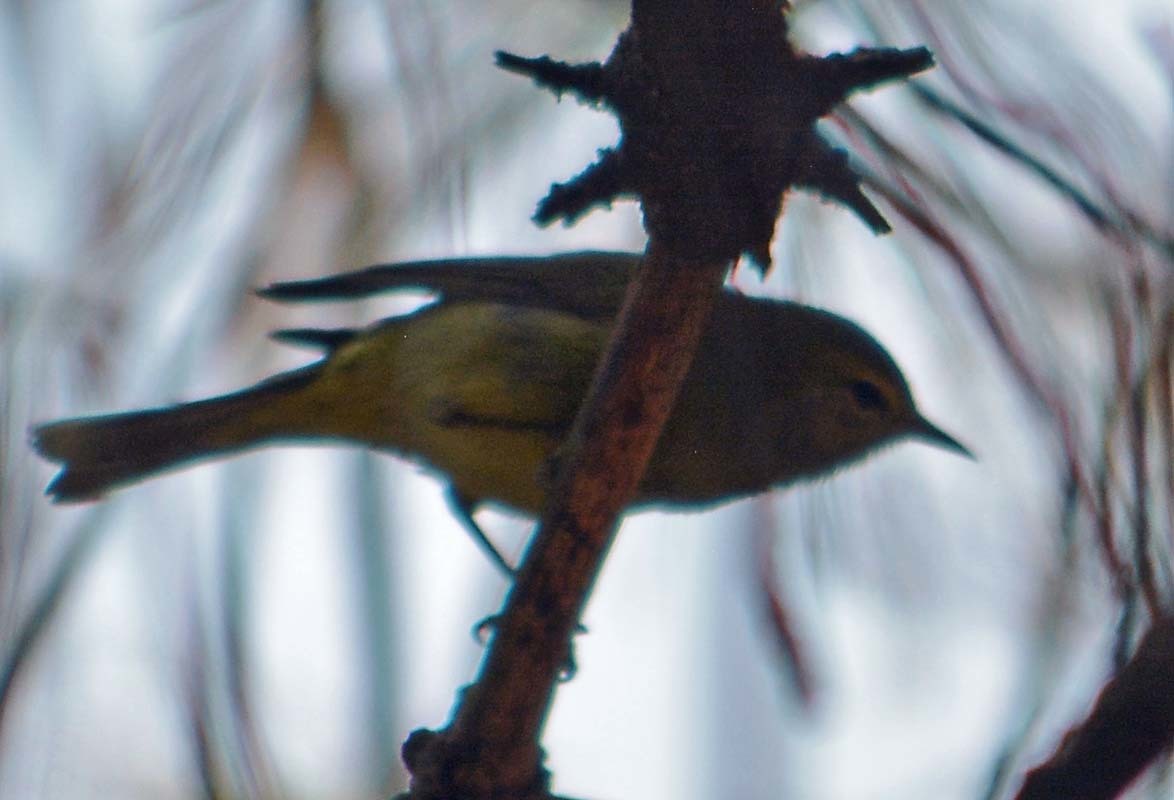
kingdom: Animalia
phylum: Chordata
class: Aves
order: Passeriformes
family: Parulidae
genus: Leiothlypis
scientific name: Leiothlypis celata
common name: Orange-crowned warbler
